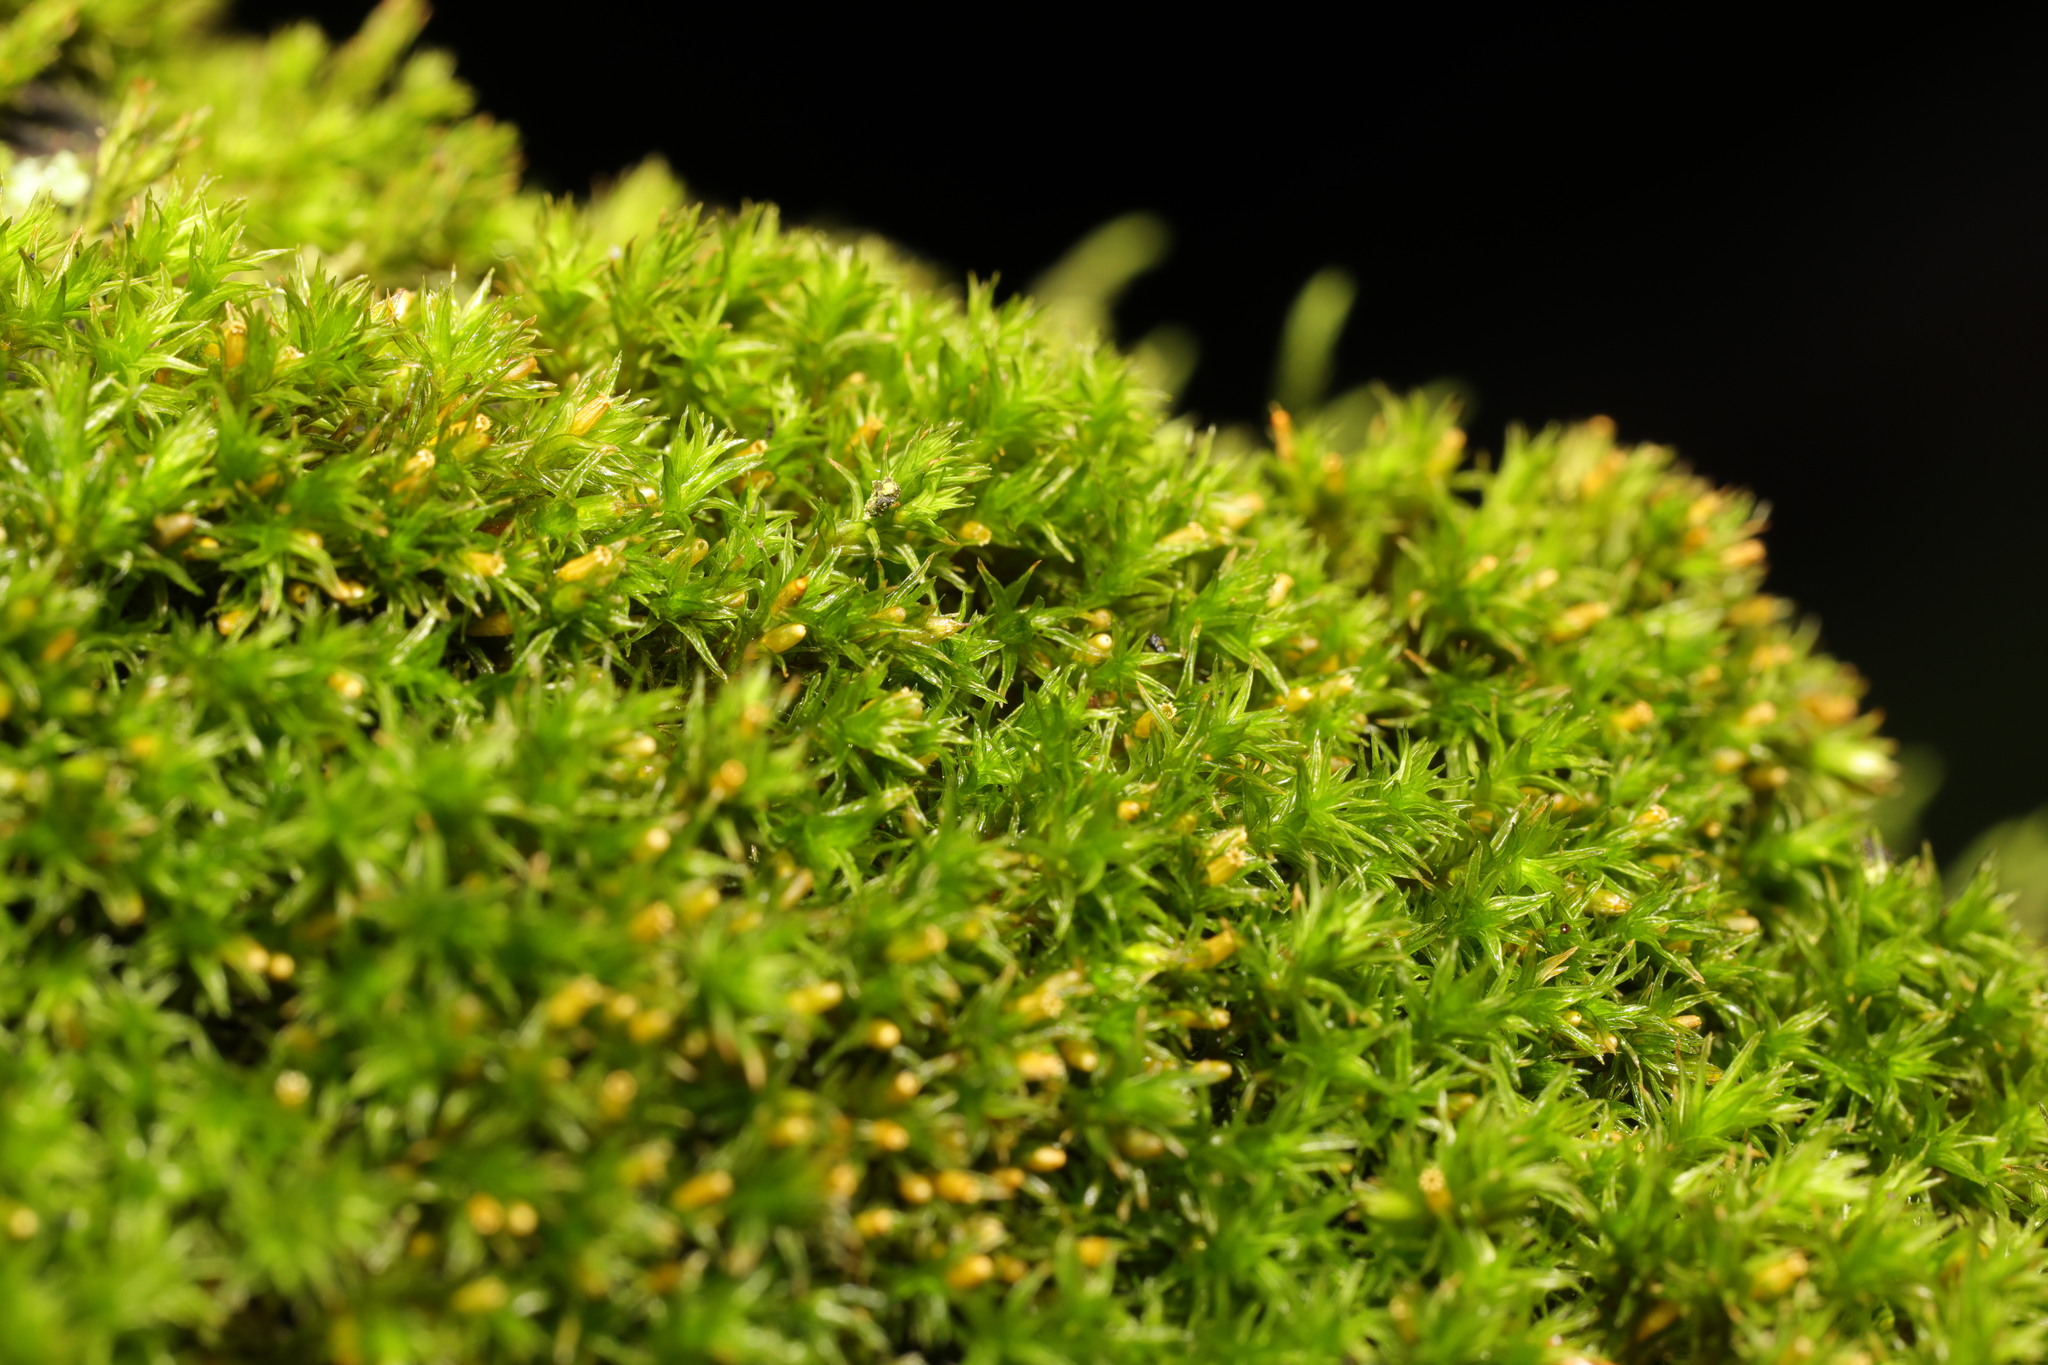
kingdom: Plantae
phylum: Bryophyta
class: Bryopsida
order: Orthotrichales
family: Orthotrichaceae
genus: Lewinskya
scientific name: Lewinskya affinis
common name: Wood bristle-moss
